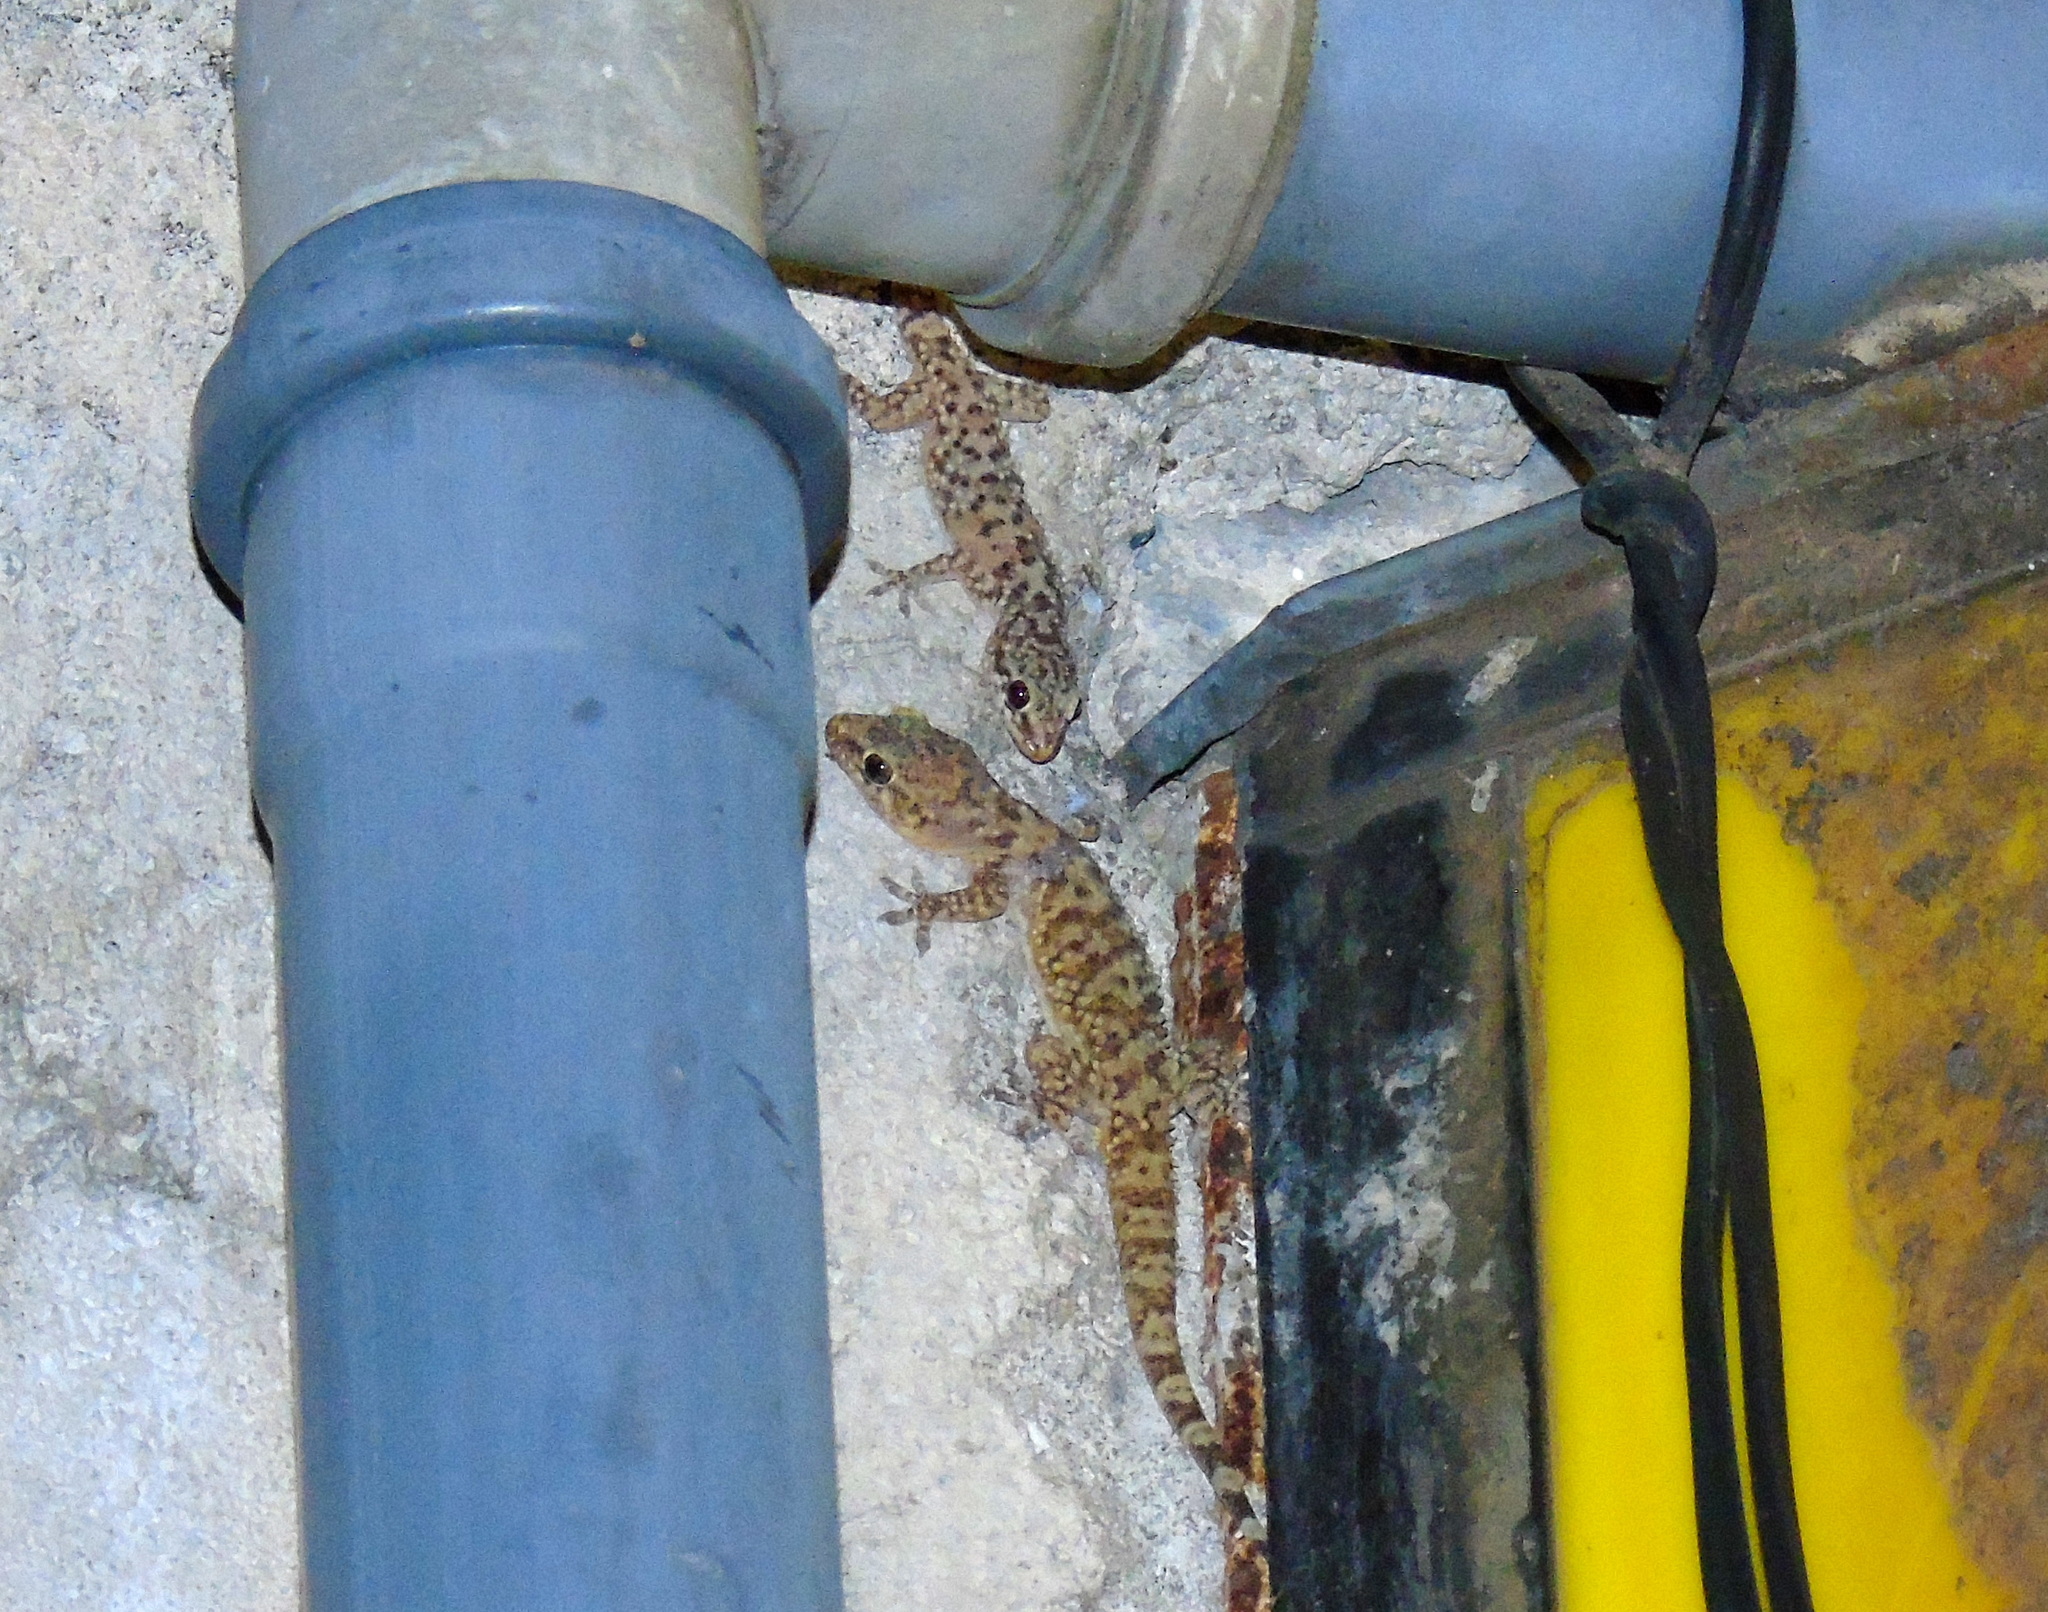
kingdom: Animalia
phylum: Chordata
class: Squamata
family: Gekkonidae
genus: Hemidactylus
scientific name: Hemidactylus turcicus
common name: Turkish gecko
